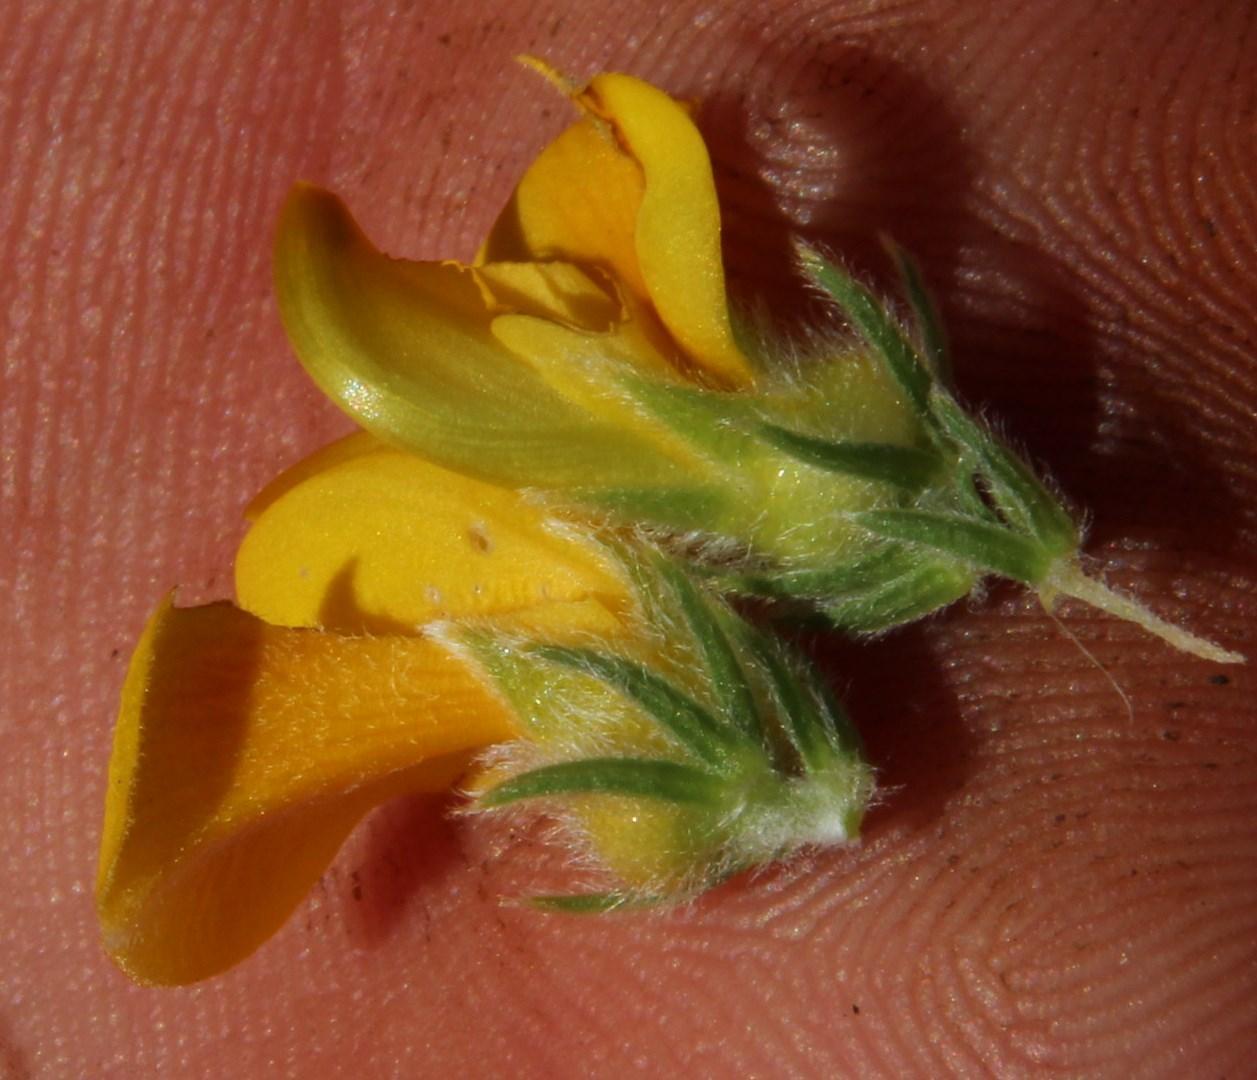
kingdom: Plantae
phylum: Tracheophyta
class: Magnoliopsida
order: Fabales
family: Fabaceae
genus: Aspalathus
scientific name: Aspalathus triquetra
